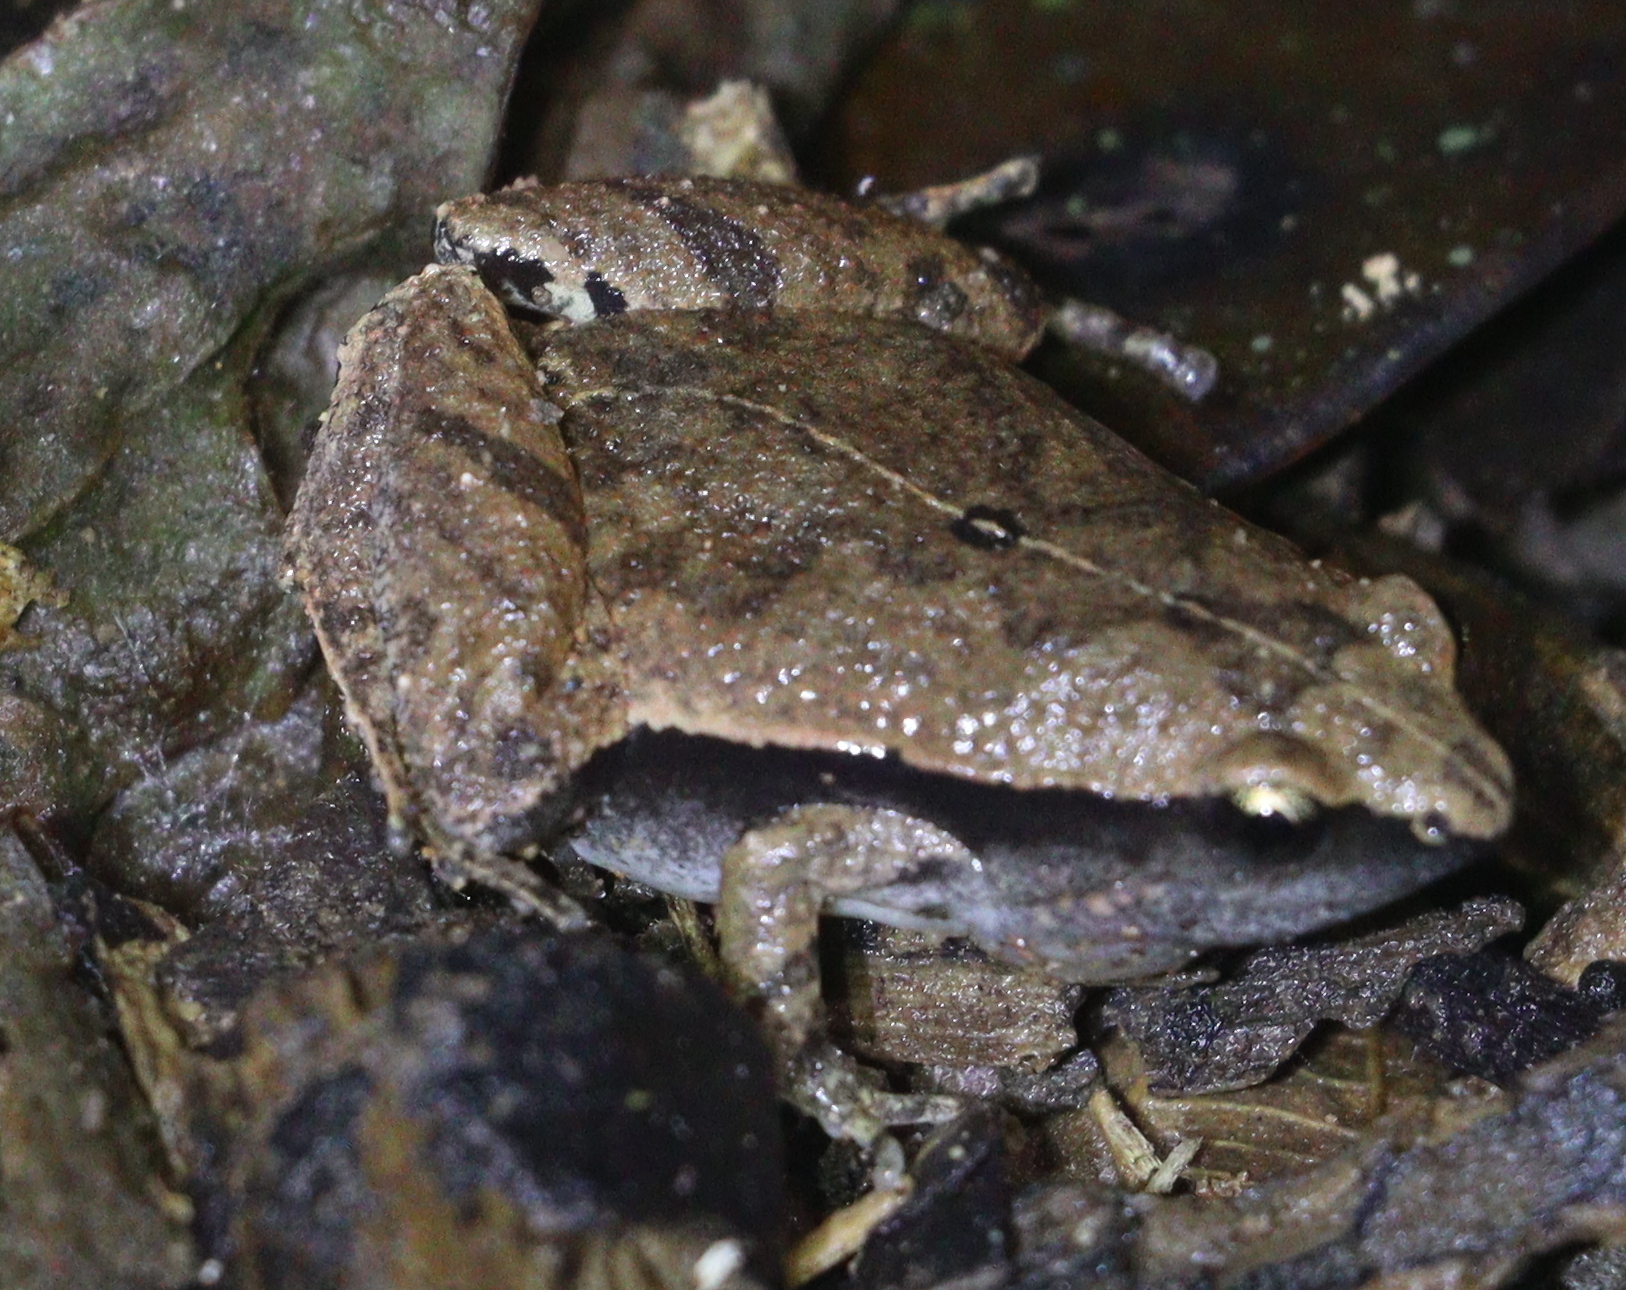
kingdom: Animalia
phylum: Chordata
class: Amphibia
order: Anura
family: Microhylidae
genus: Microhyla
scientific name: Microhyla heymonsi
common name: Taiwan rice frog,dark sided chorus frog
